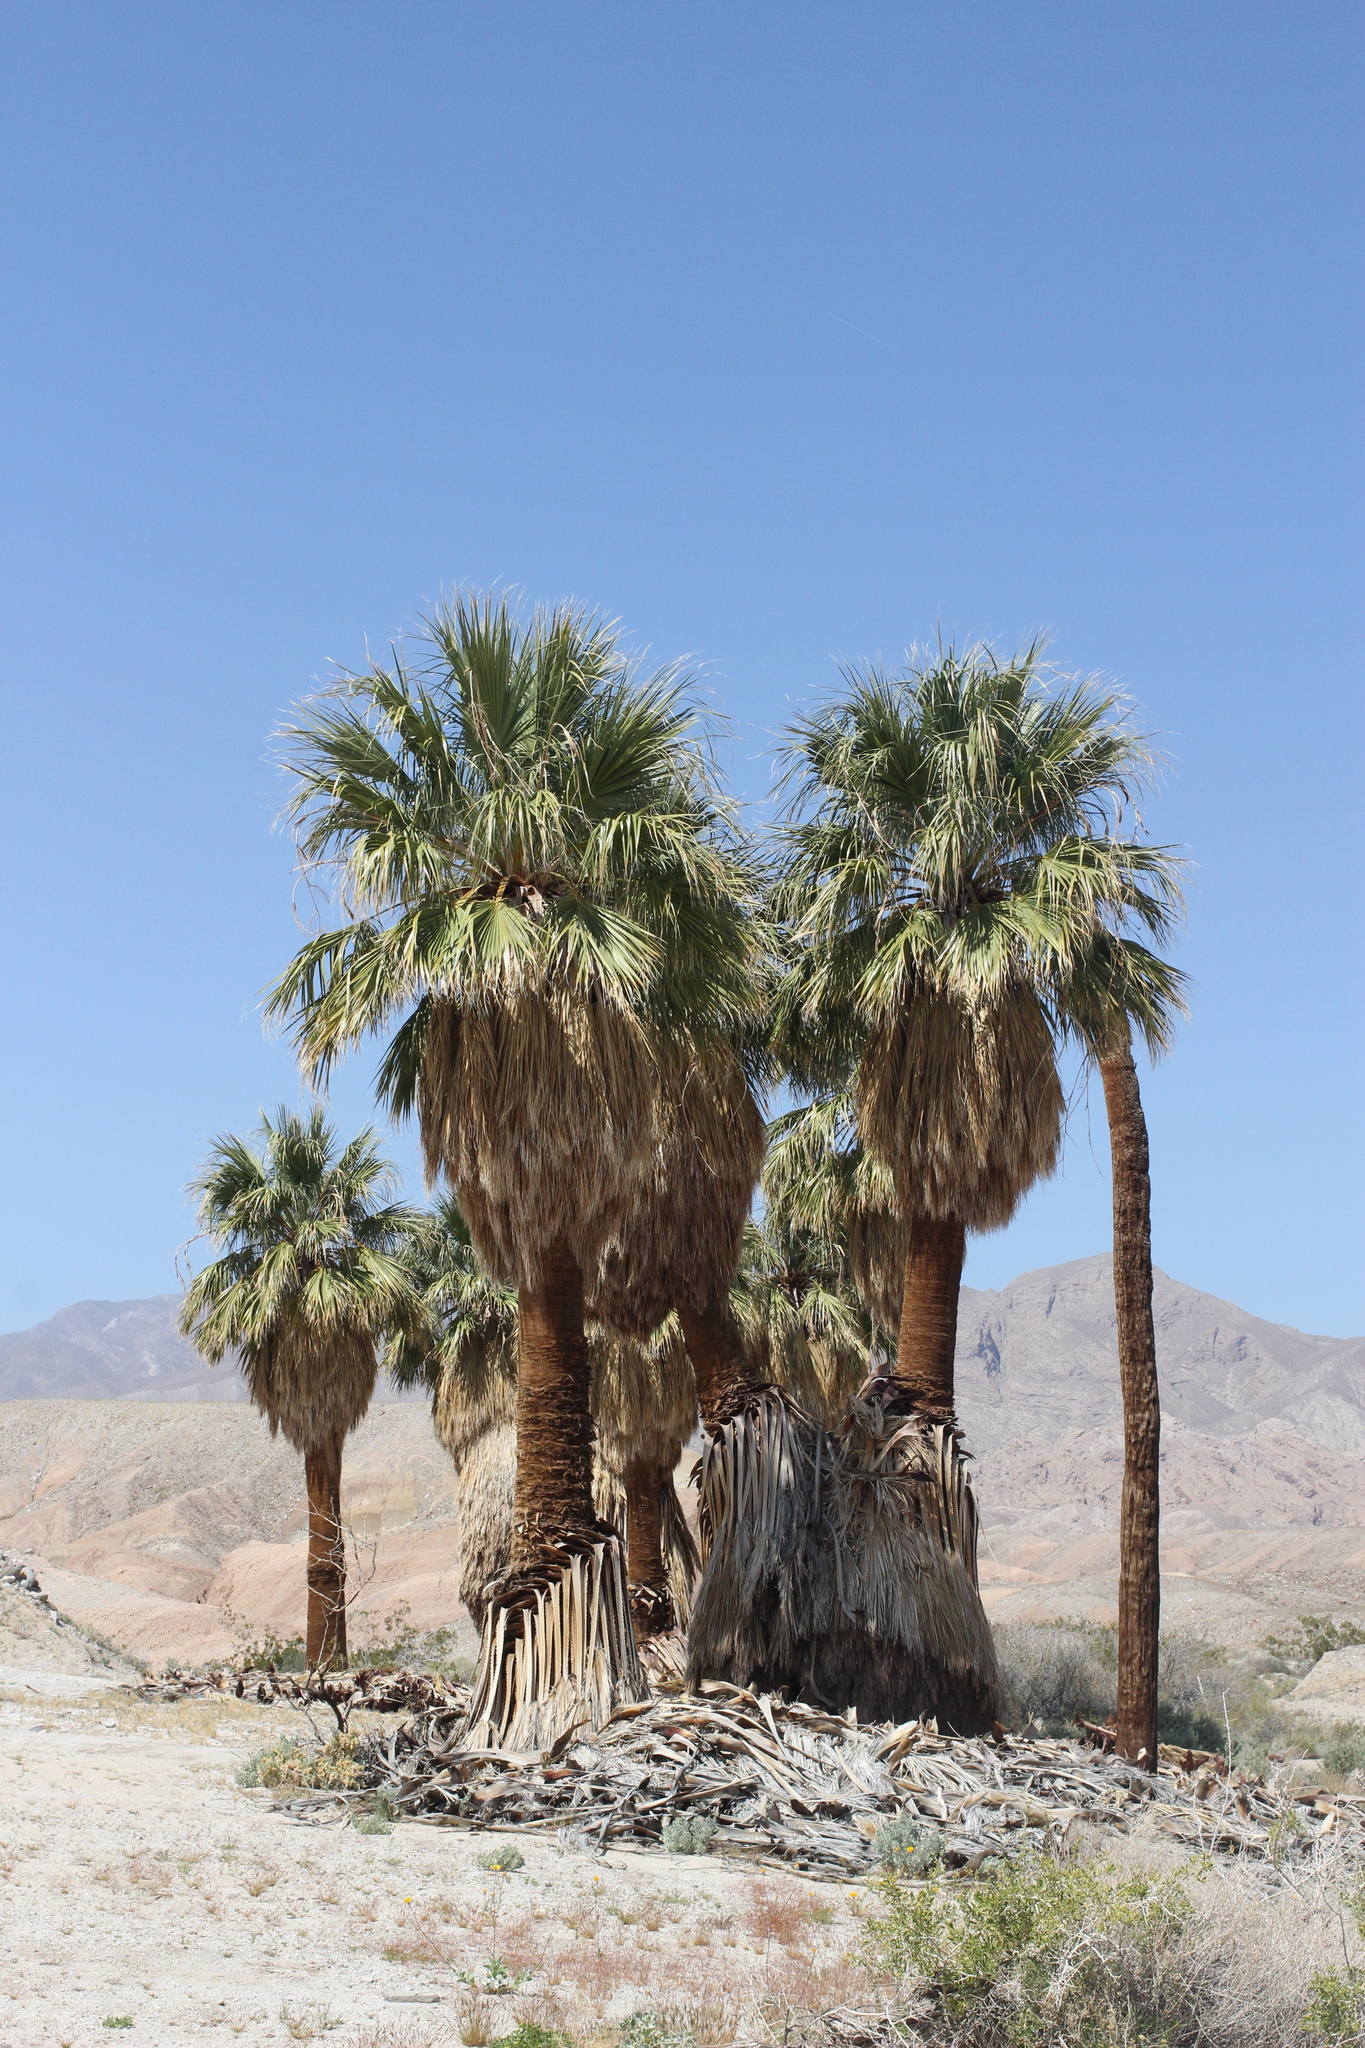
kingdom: Plantae
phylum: Tracheophyta
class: Liliopsida
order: Arecales
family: Arecaceae
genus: Washingtonia
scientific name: Washingtonia filifera
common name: California fan palm
